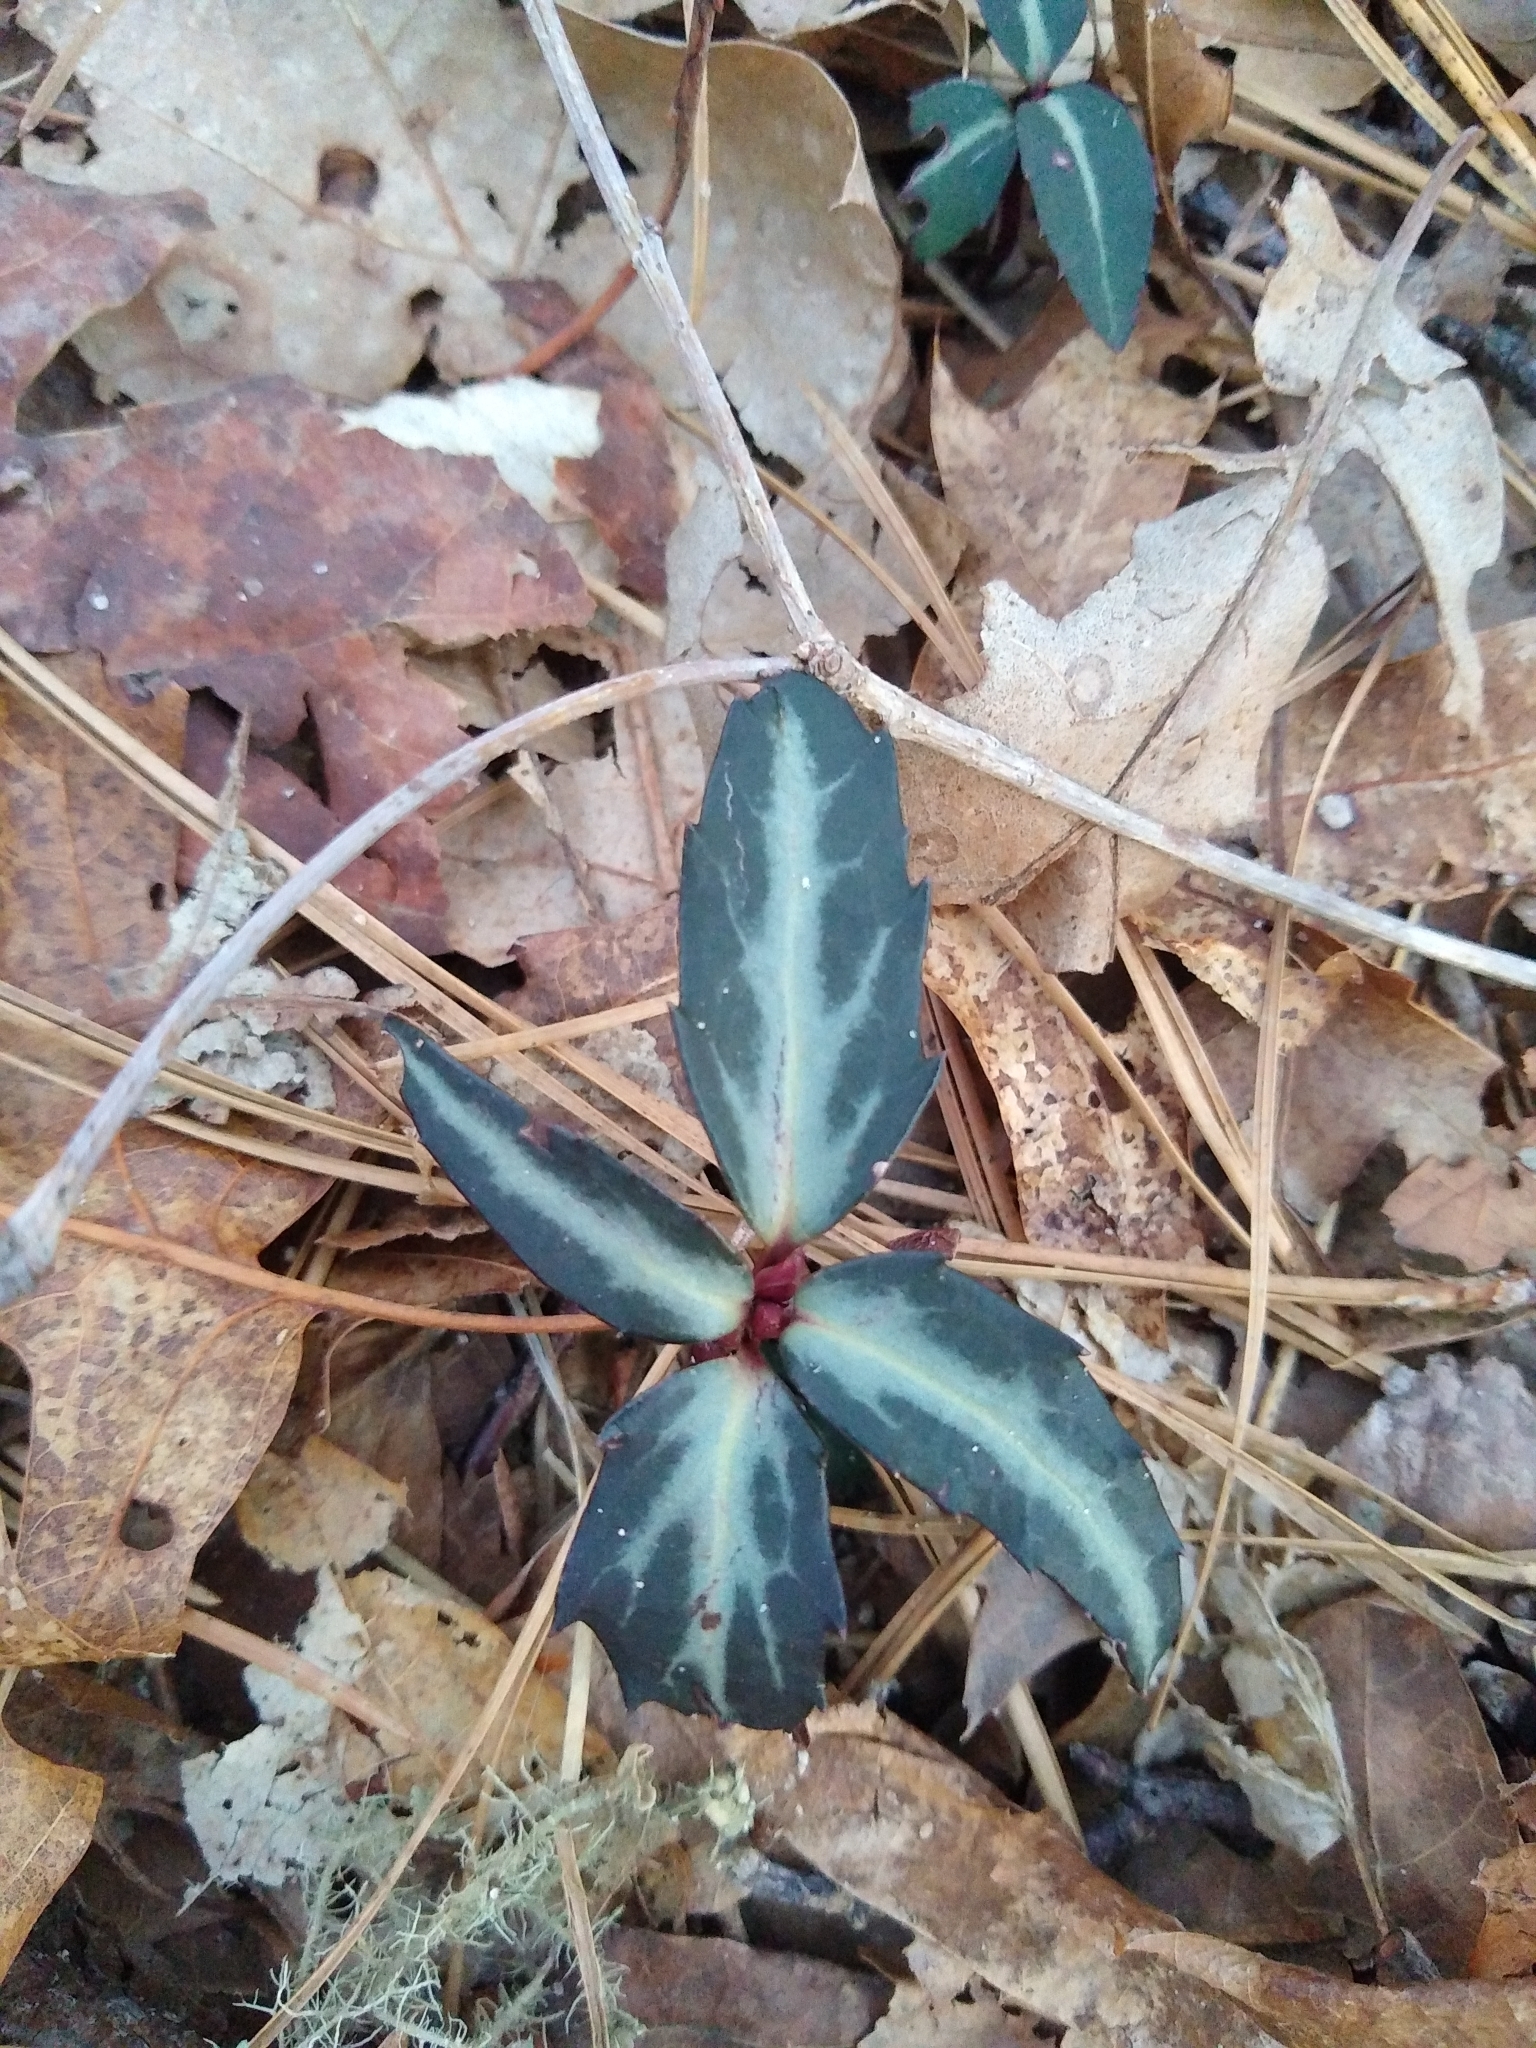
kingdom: Plantae
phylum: Tracheophyta
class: Magnoliopsida
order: Ericales
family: Ericaceae
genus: Chimaphila
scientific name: Chimaphila maculata
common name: Spotted pipsissewa
